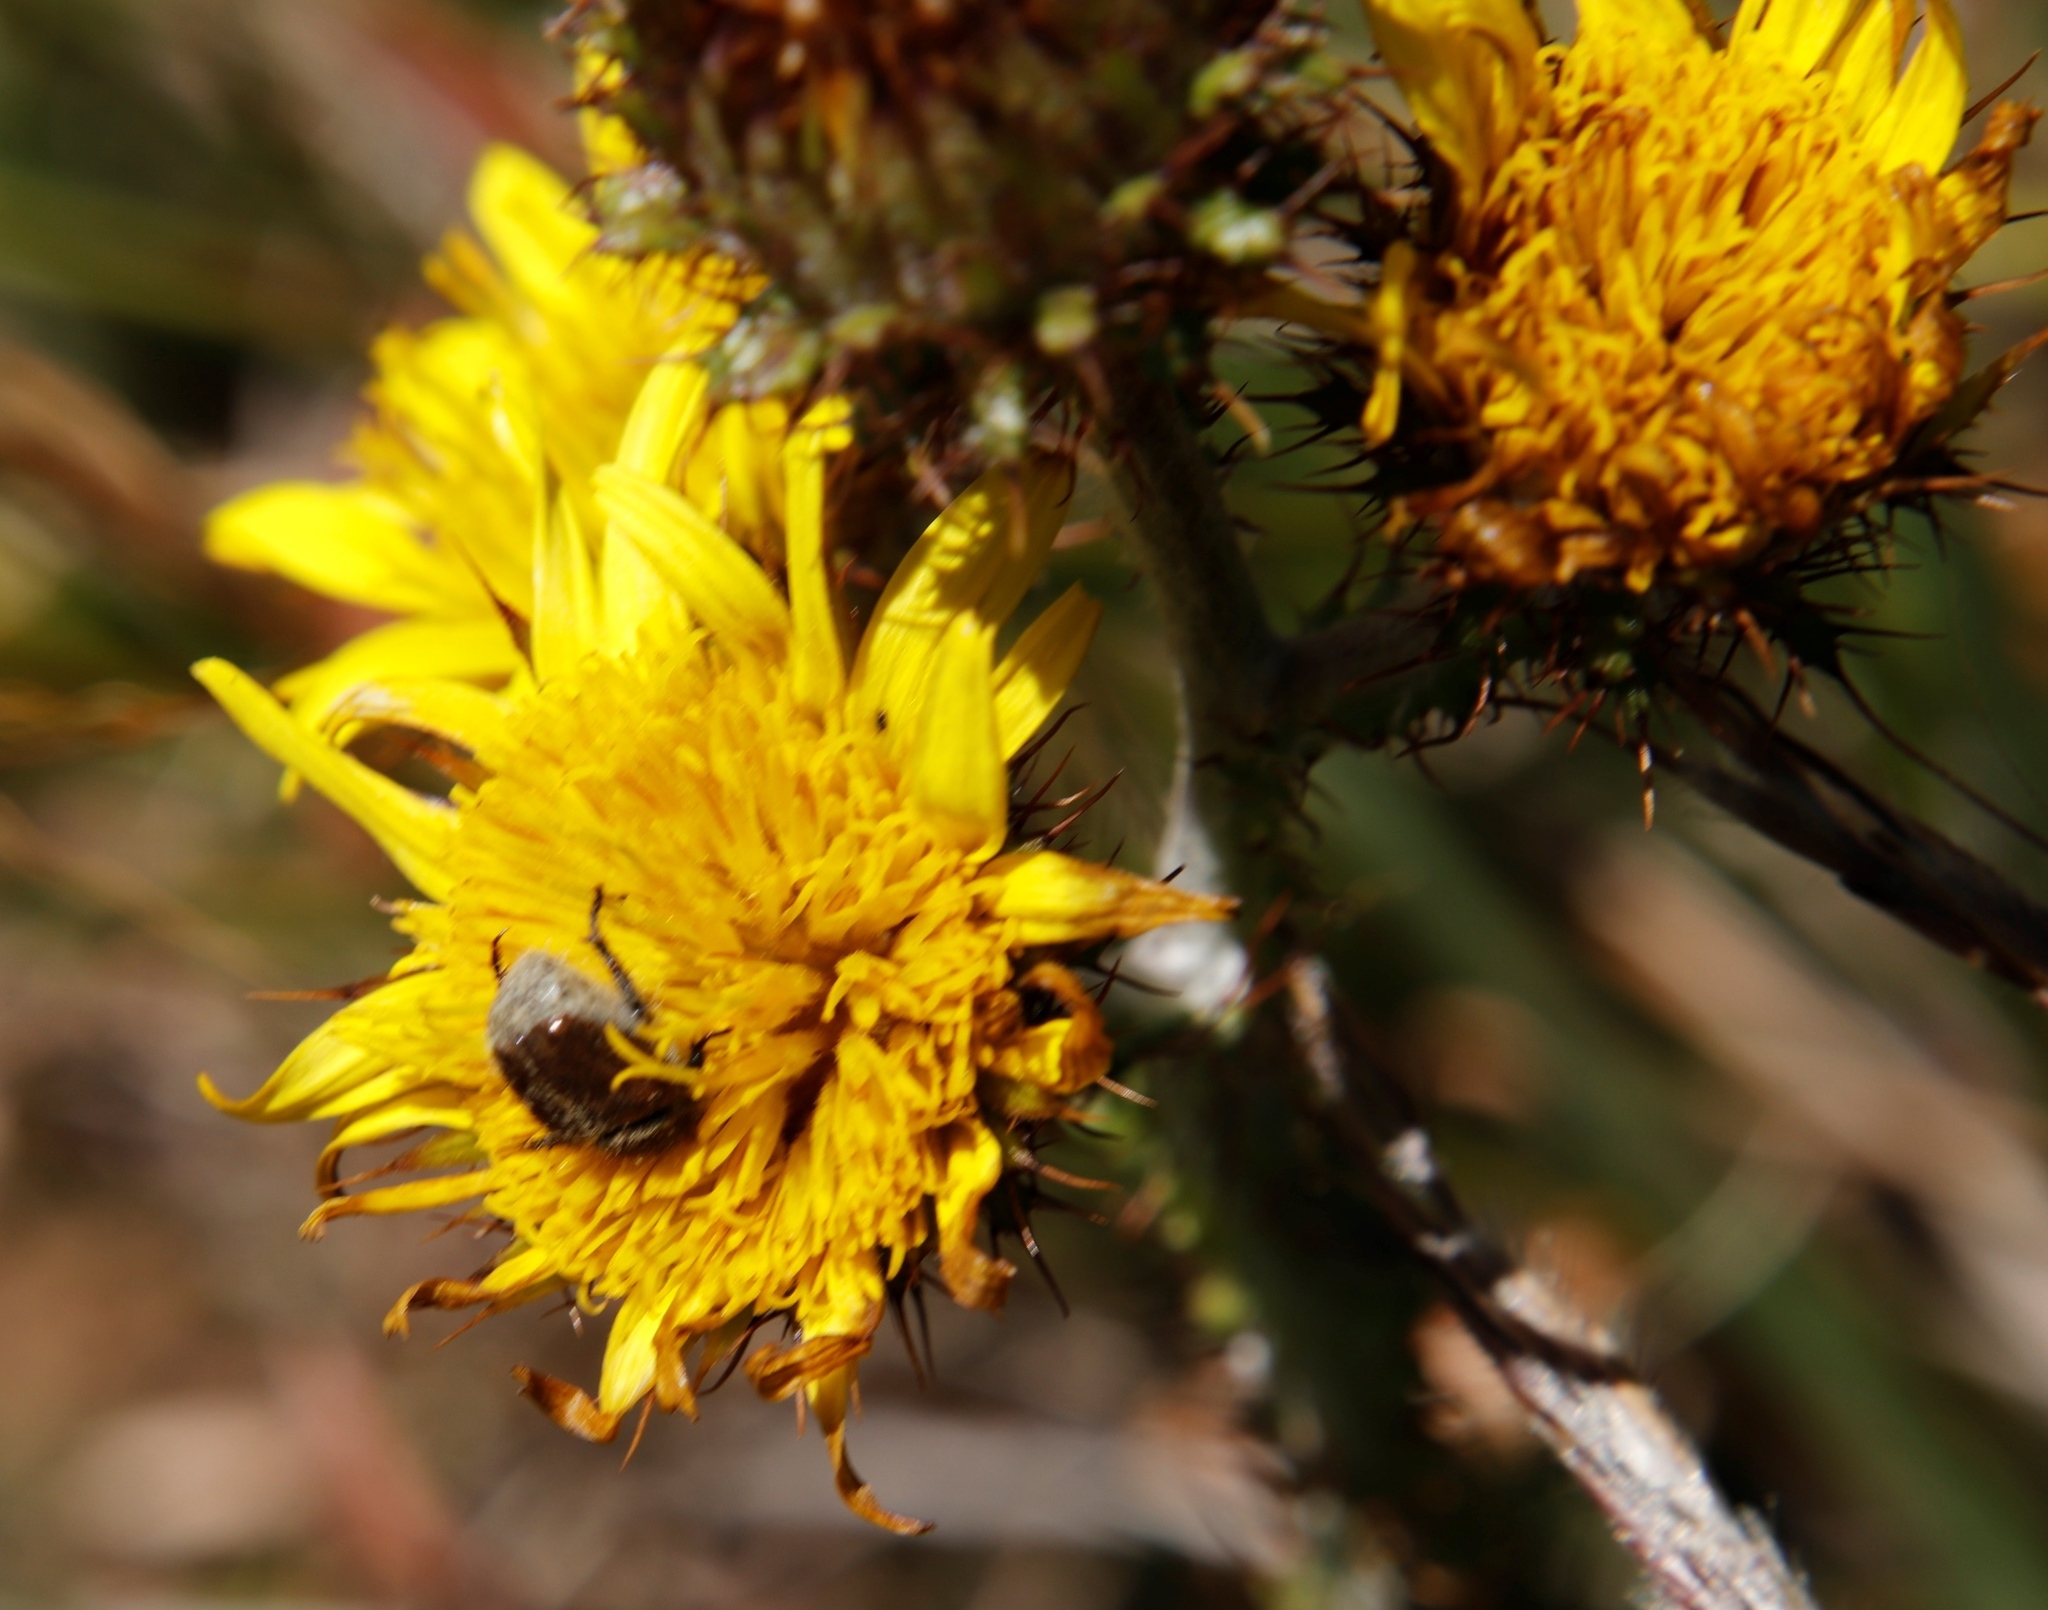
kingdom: Plantae
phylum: Tracheophyta
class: Magnoliopsida
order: Asterales
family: Asteraceae
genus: Berkheya
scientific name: Berkheya rhapontica
